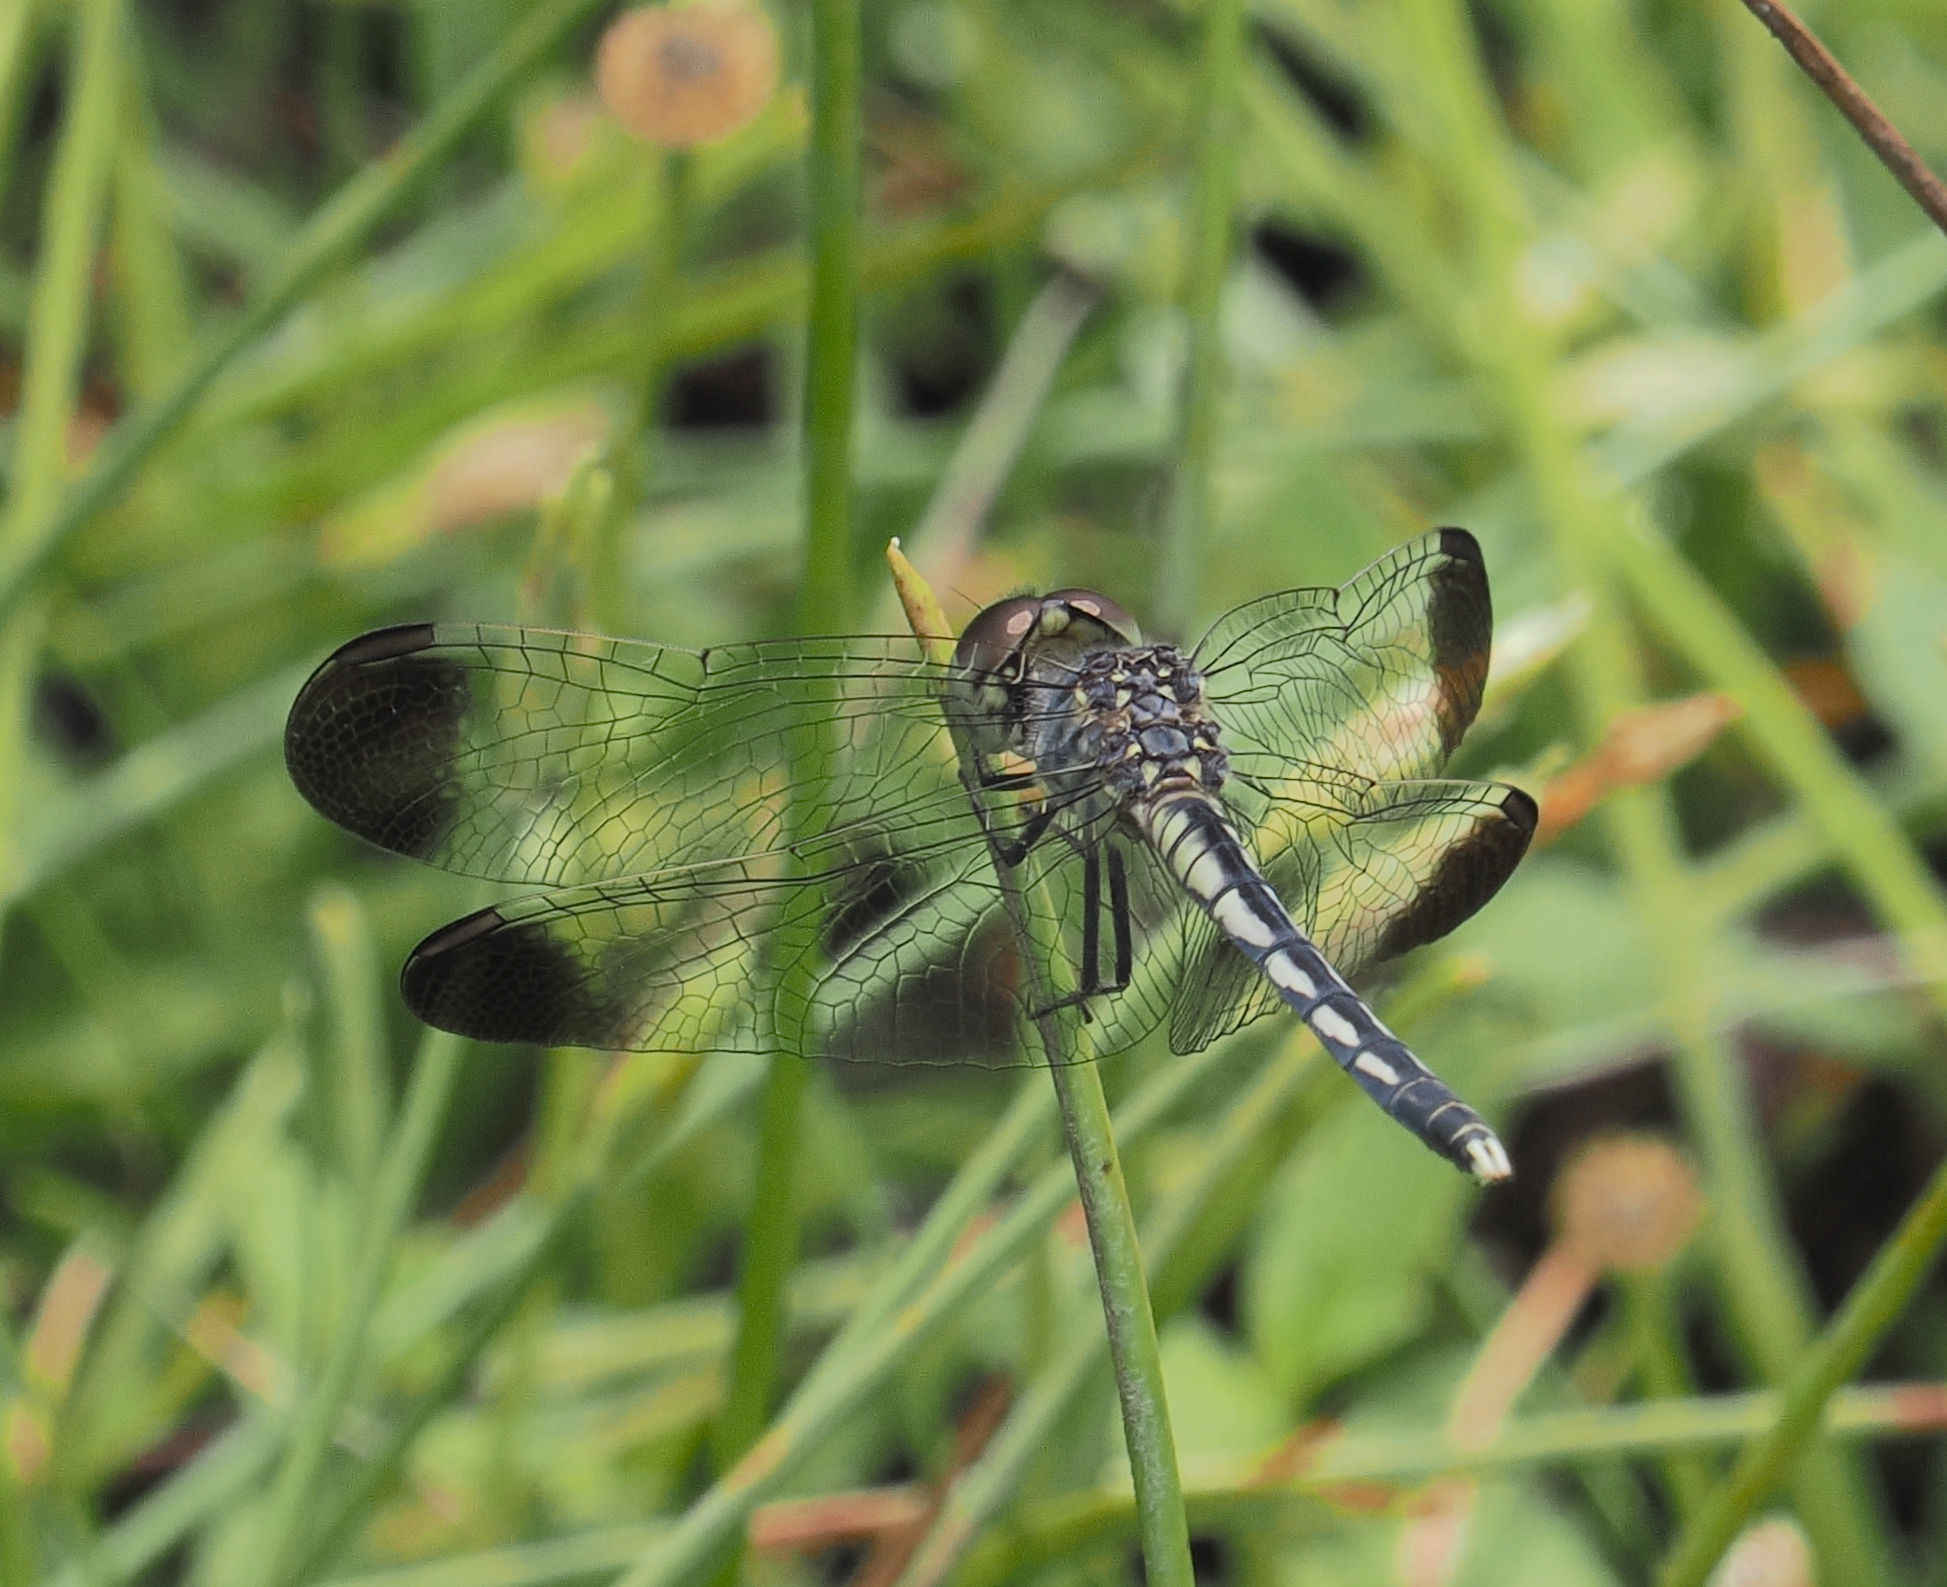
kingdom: Animalia
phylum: Arthropoda
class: Insecta
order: Odonata
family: Libellulidae
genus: Diplacodes
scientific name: Diplacodes nebulosa
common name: Black-tipped percher
